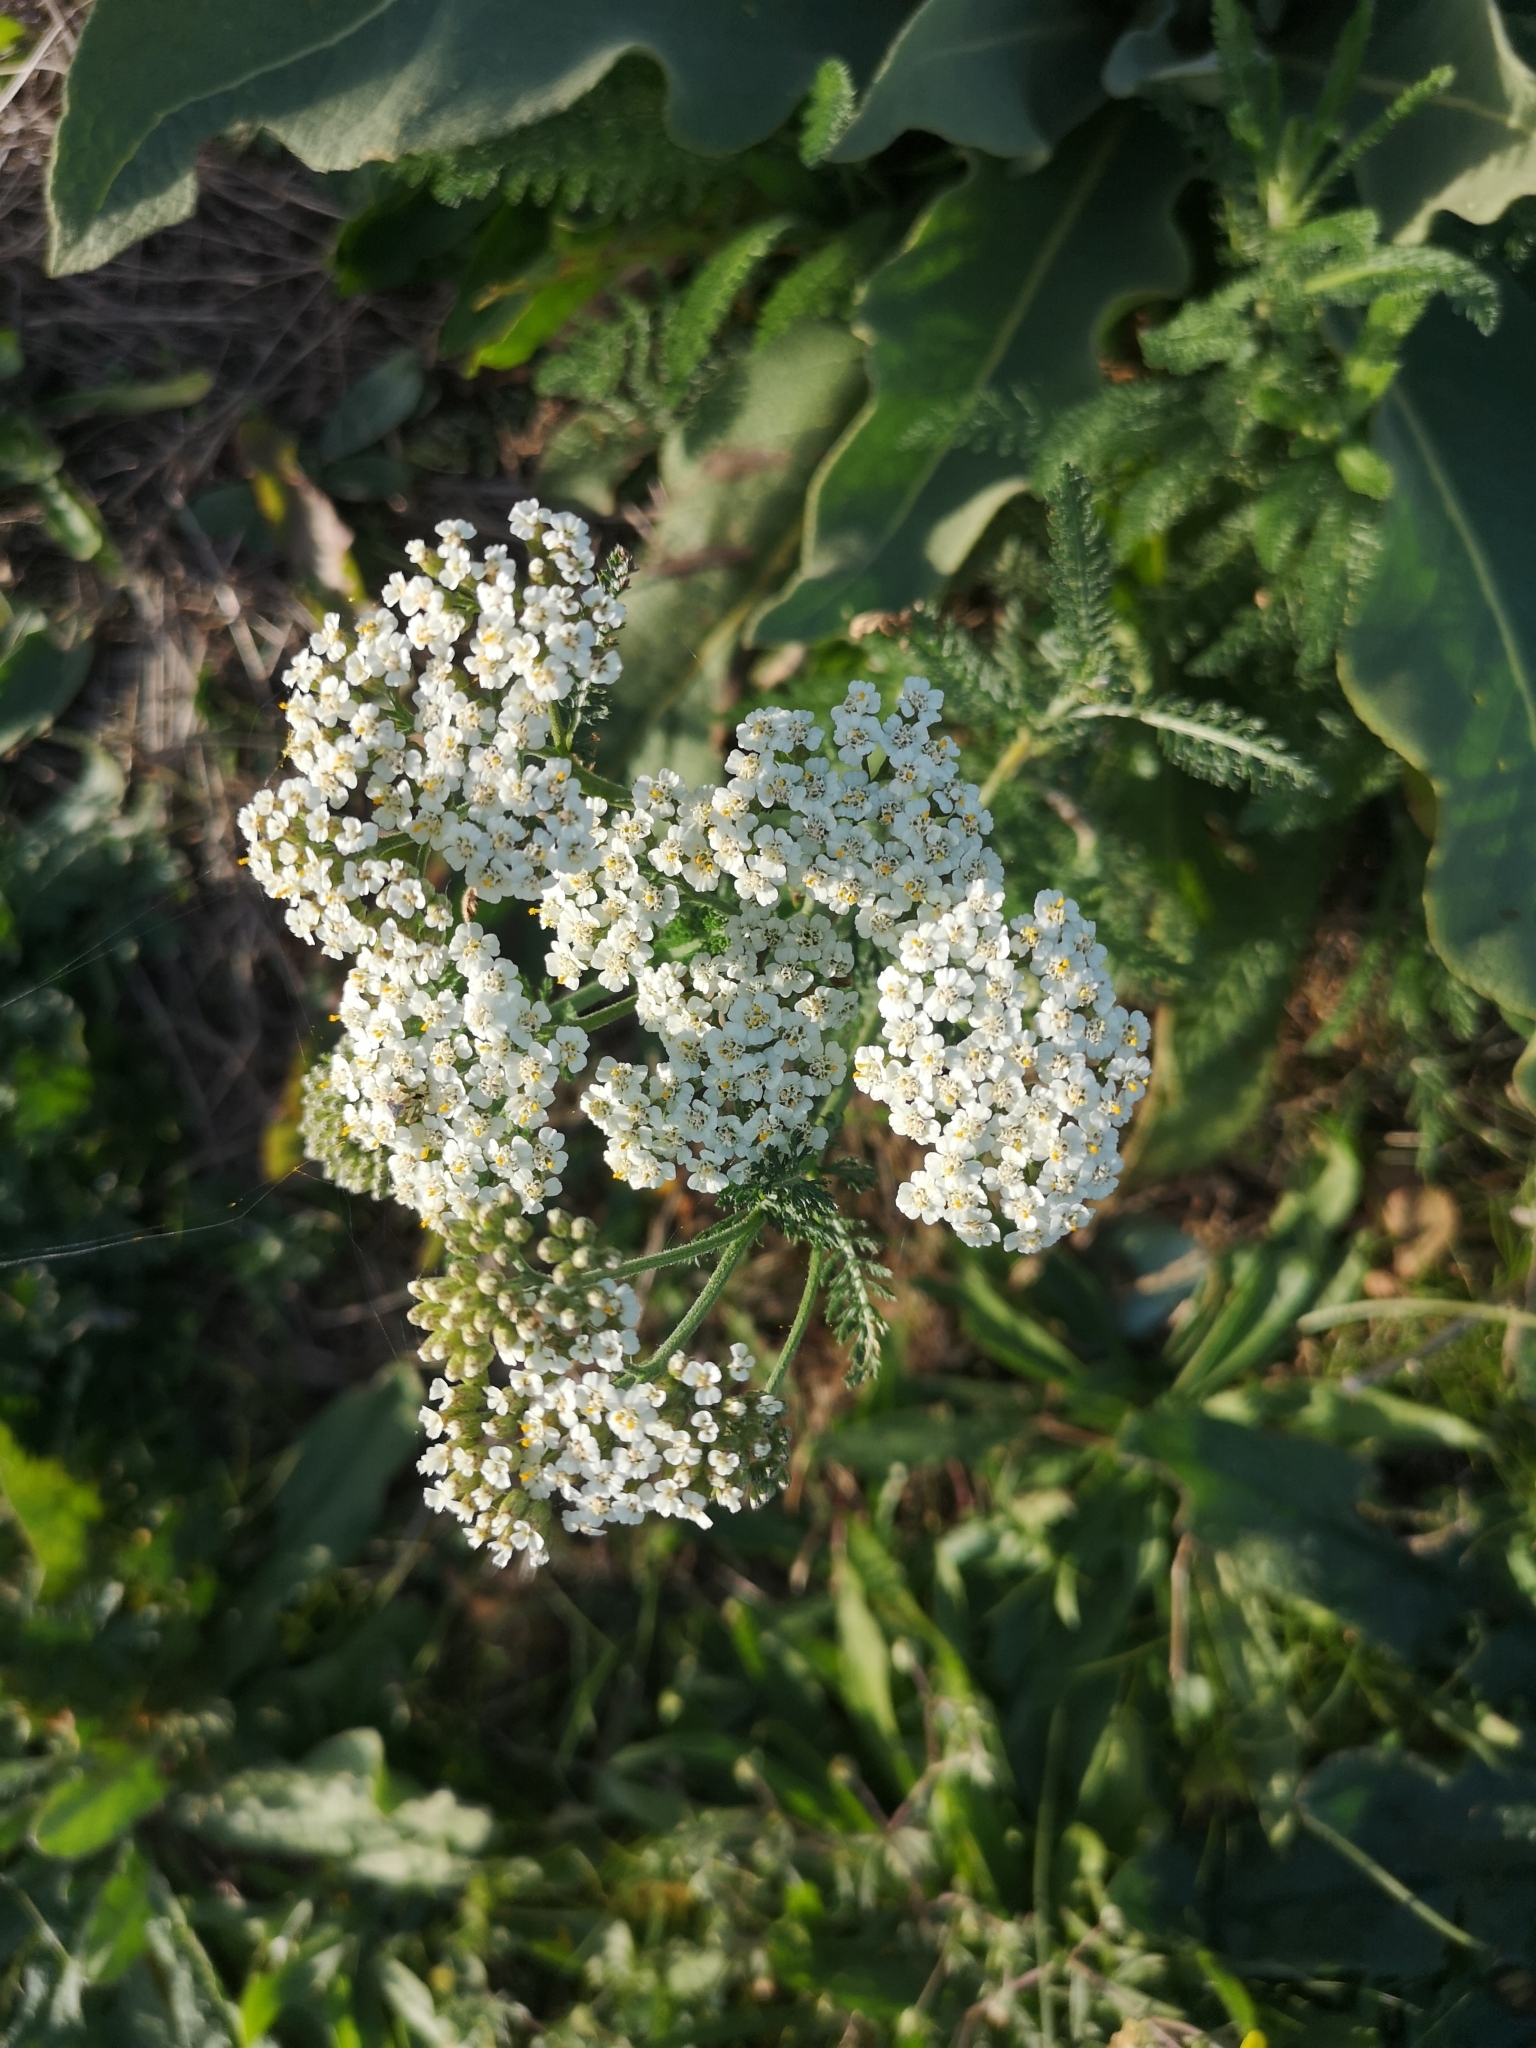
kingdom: Plantae
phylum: Tracheophyta
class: Magnoliopsida
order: Asterales
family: Asteraceae
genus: Achillea
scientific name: Achillea millefolium
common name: Yarrow
